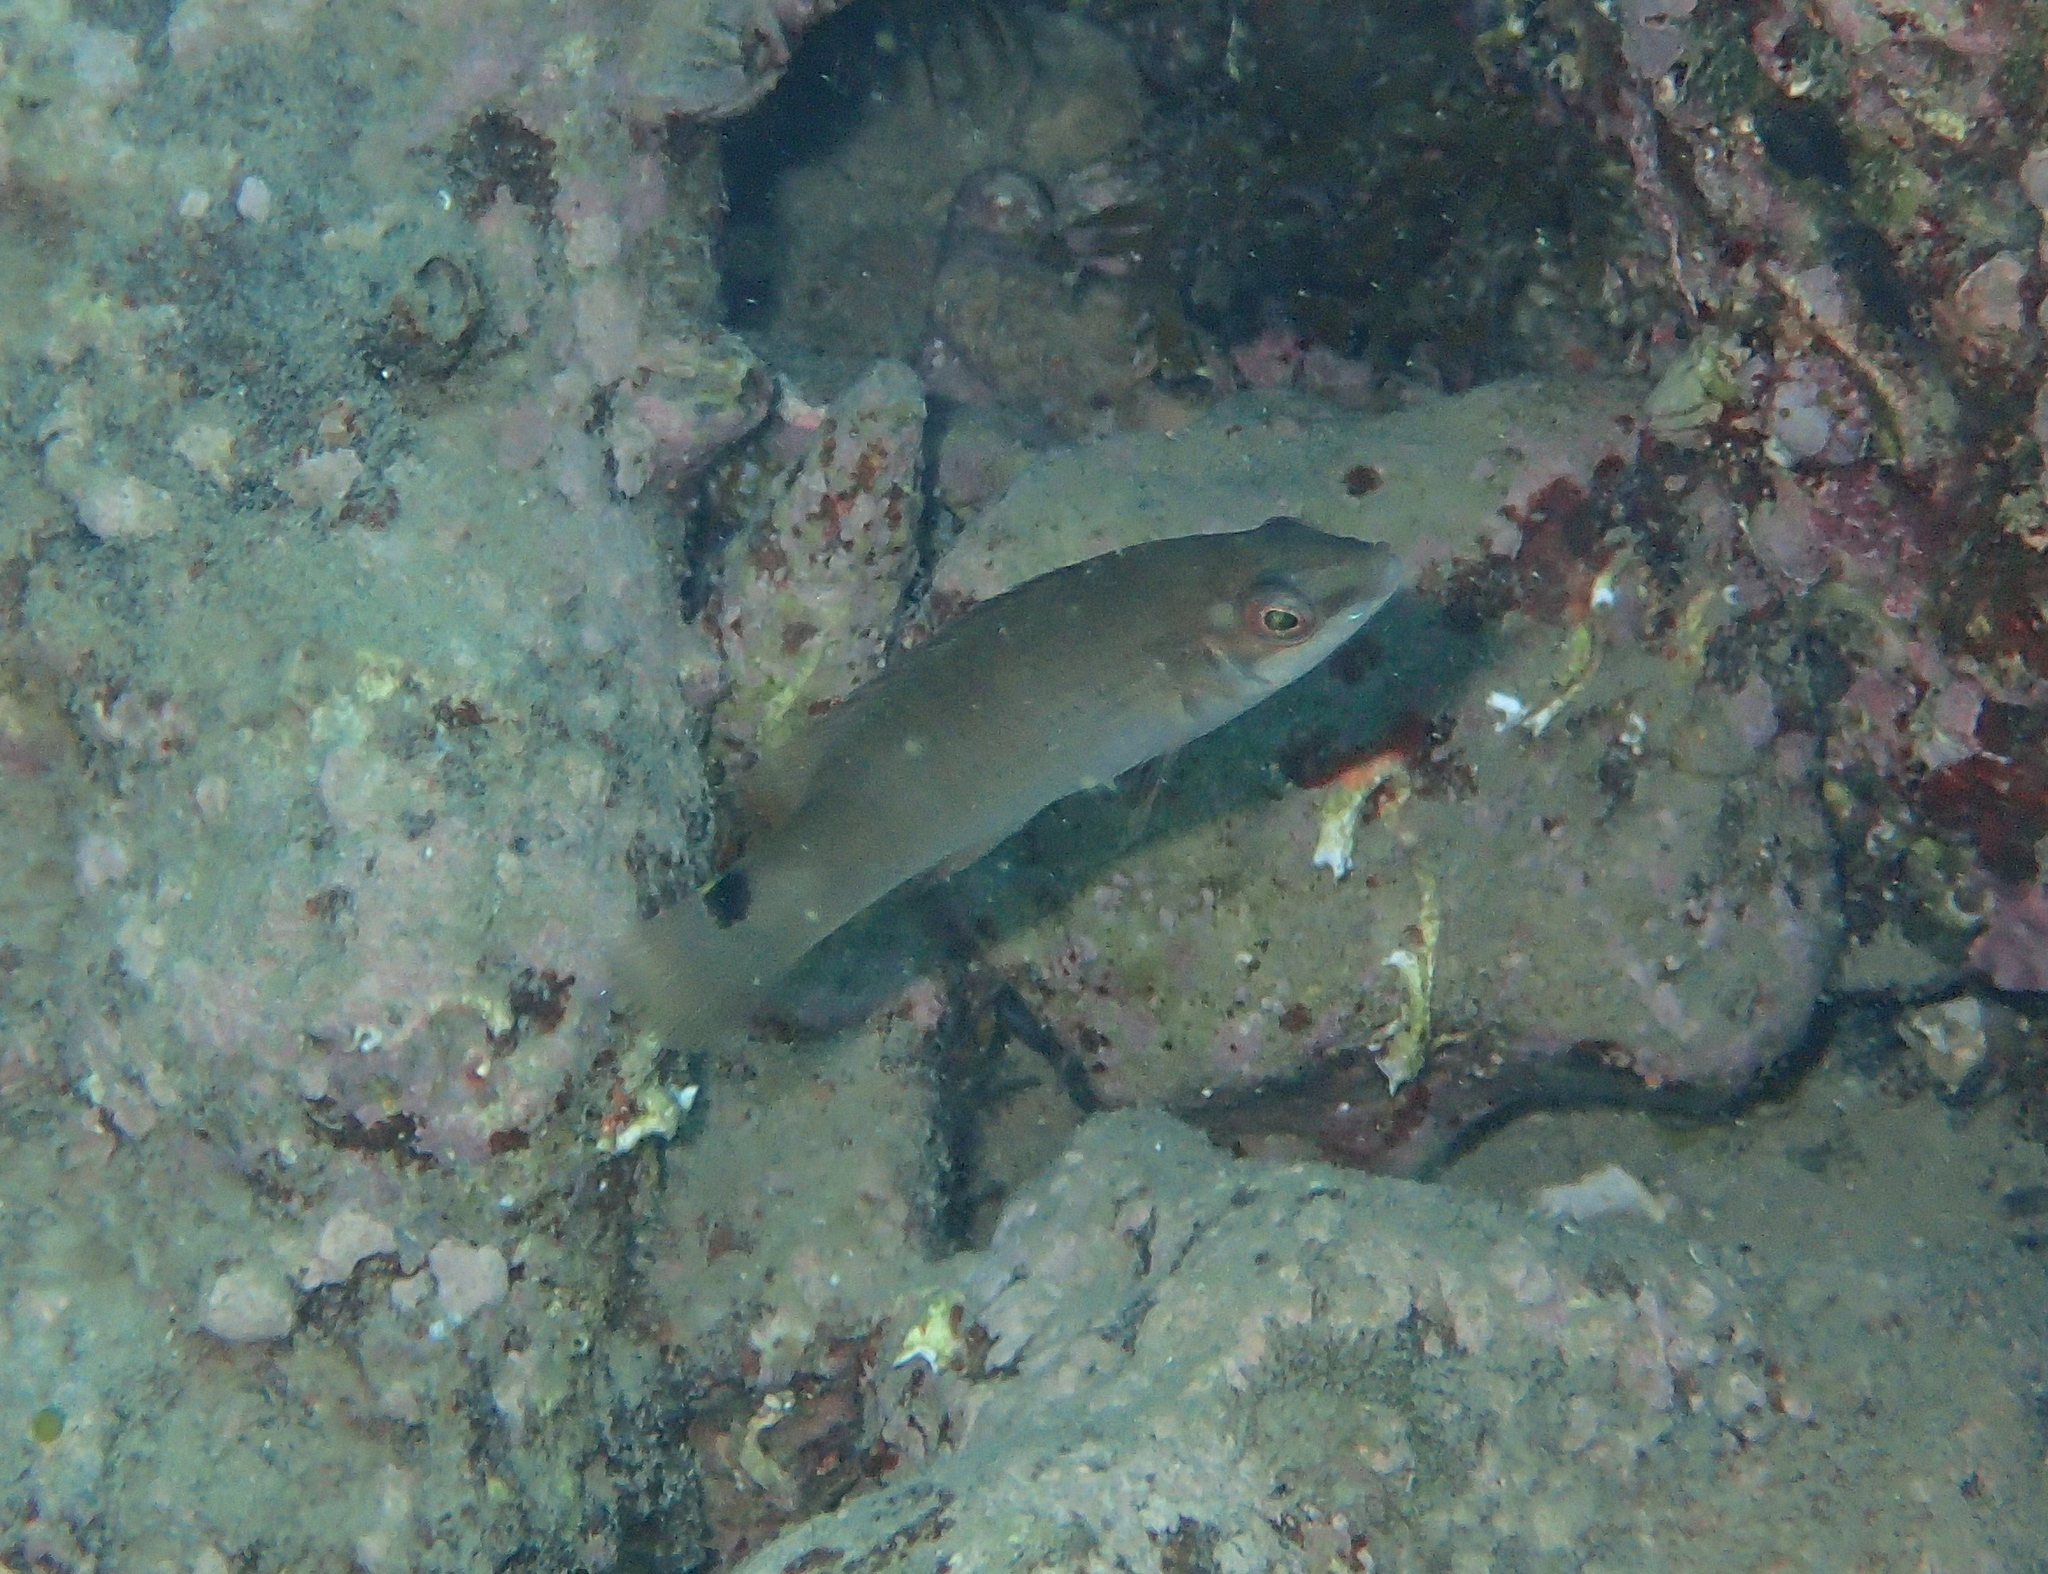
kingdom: Animalia
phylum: Chordata
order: Perciformes
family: Labridae
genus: Ctenolabrus
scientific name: Ctenolabrus rupestris
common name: Goldsinny
